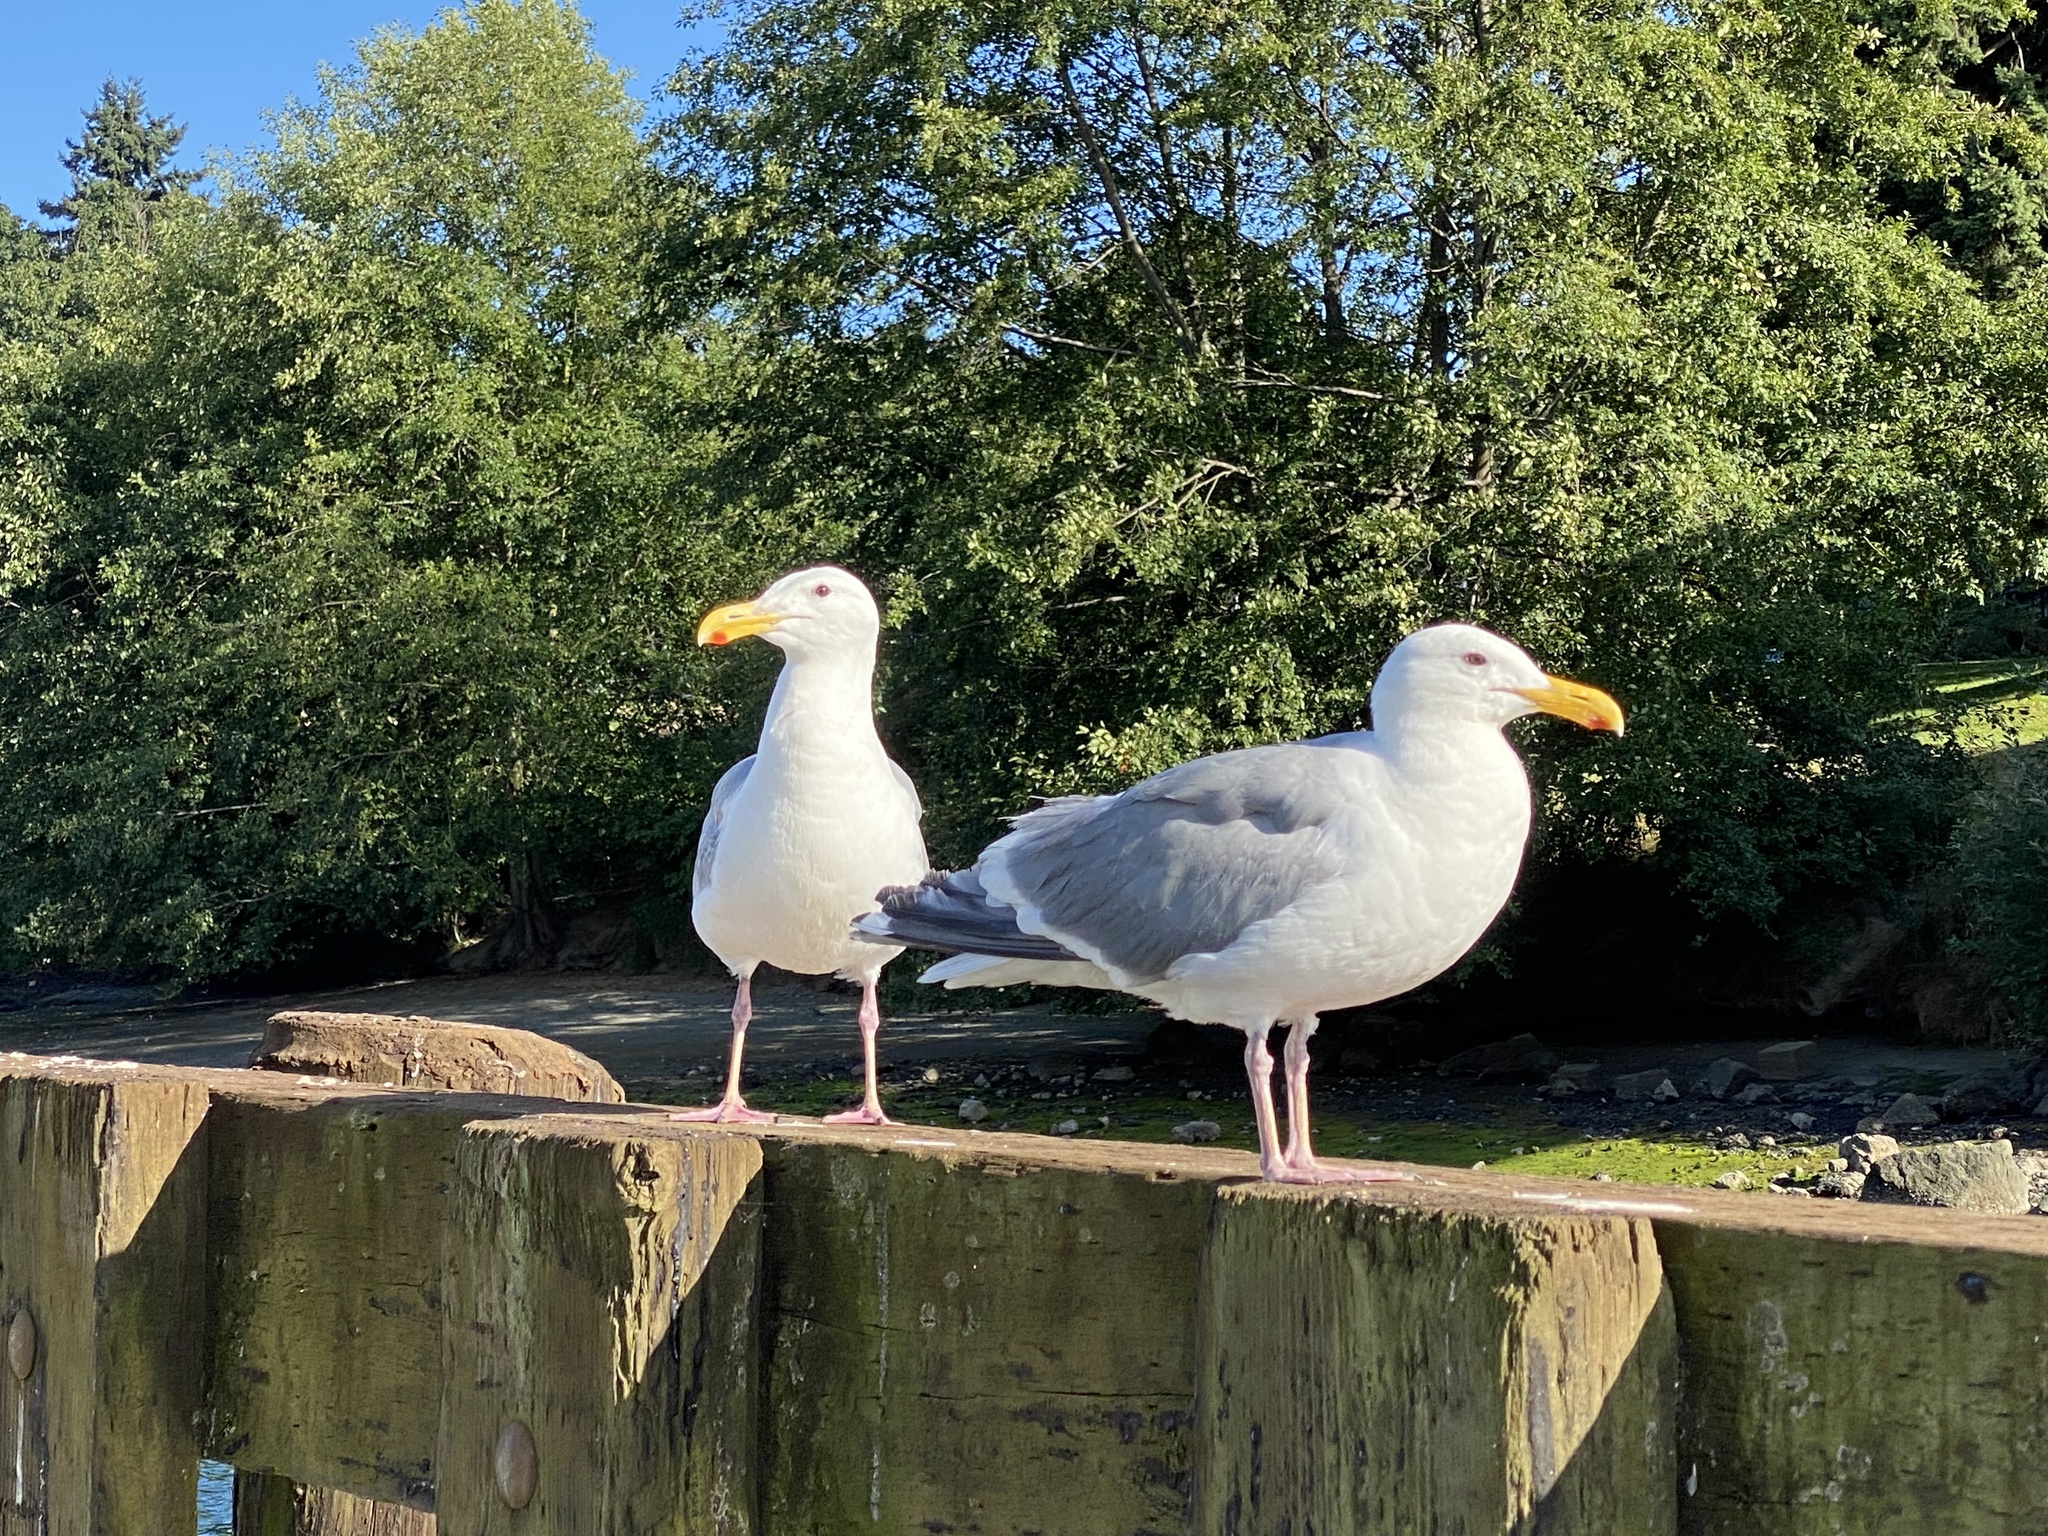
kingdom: Animalia
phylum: Chordata
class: Aves
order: Charadriiformes
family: Laridae
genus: Larus
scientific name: Larus
